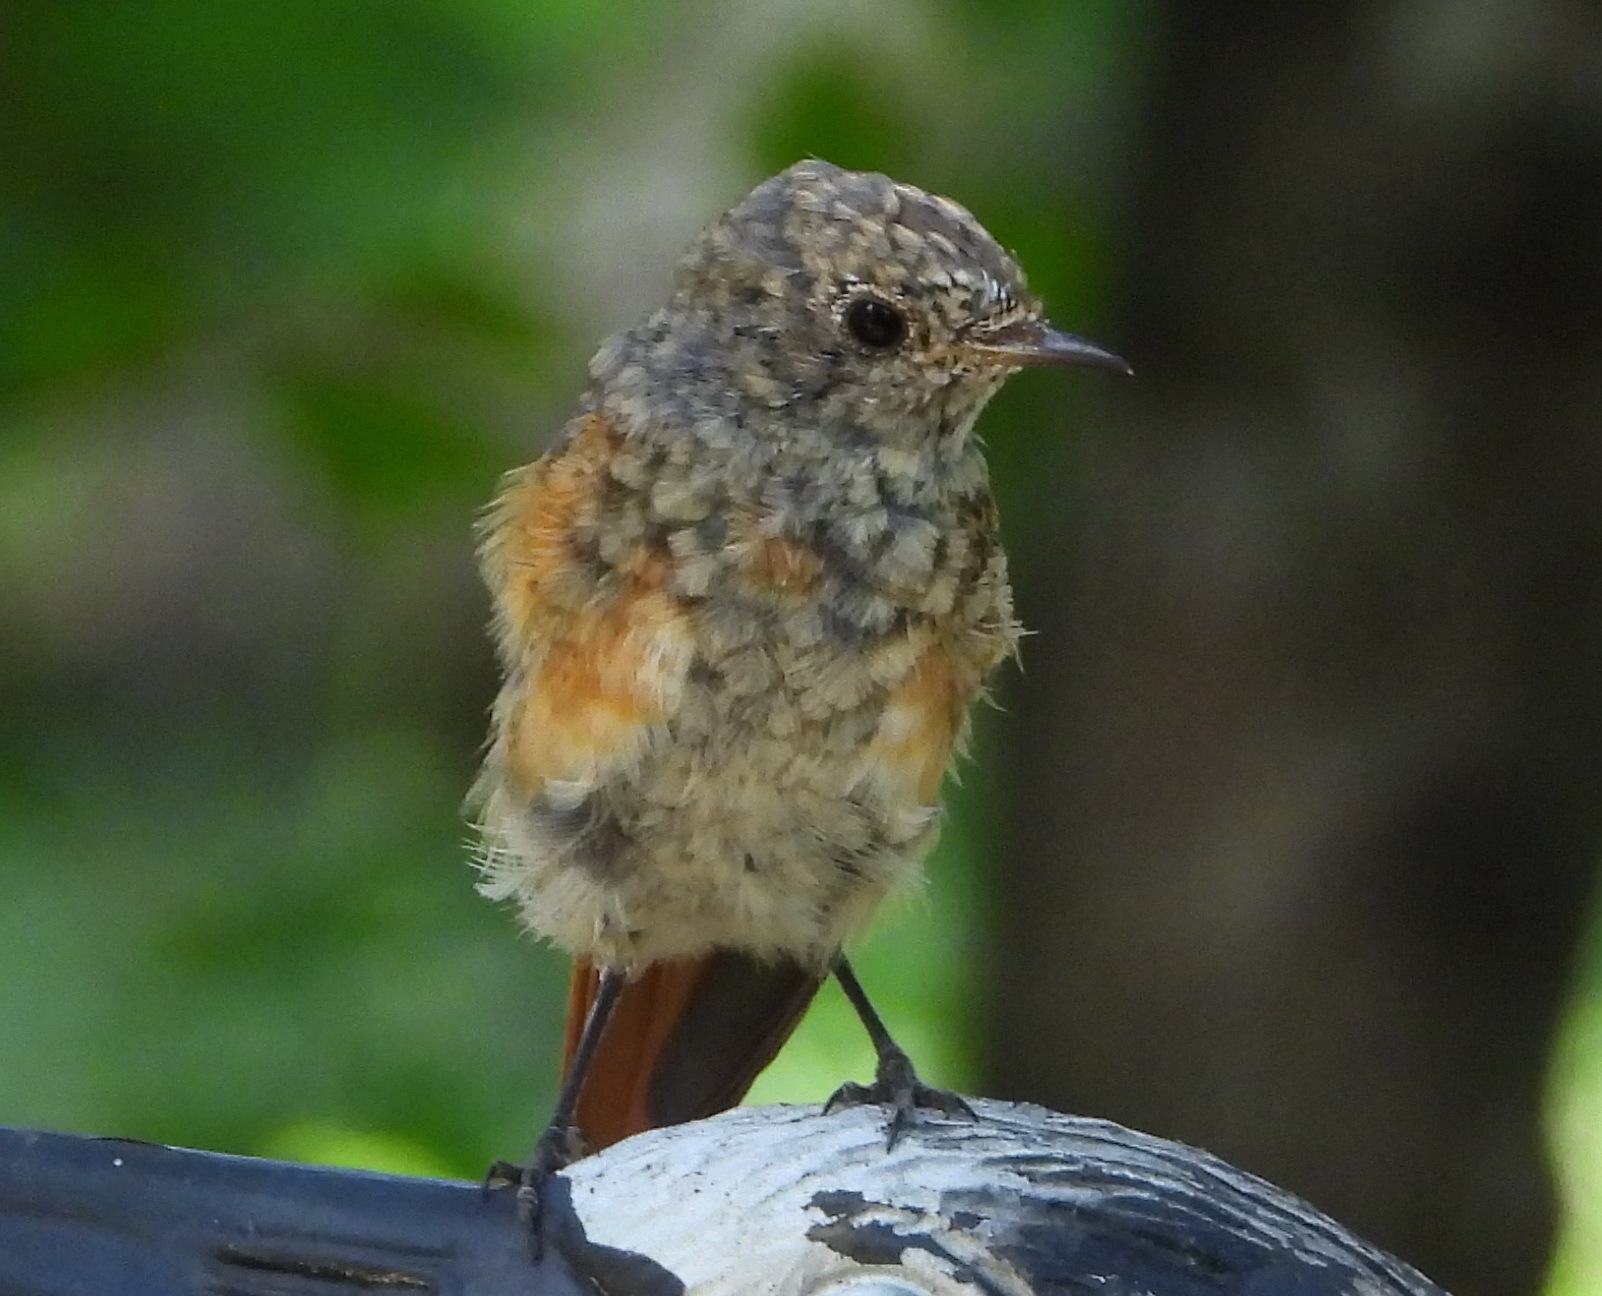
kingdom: Animalia
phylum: Chordata
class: Aves
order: Passeriformes
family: Muscicapidae
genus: Phoenicurus
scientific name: Phoenicurus phoenicurus
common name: Common redstart
